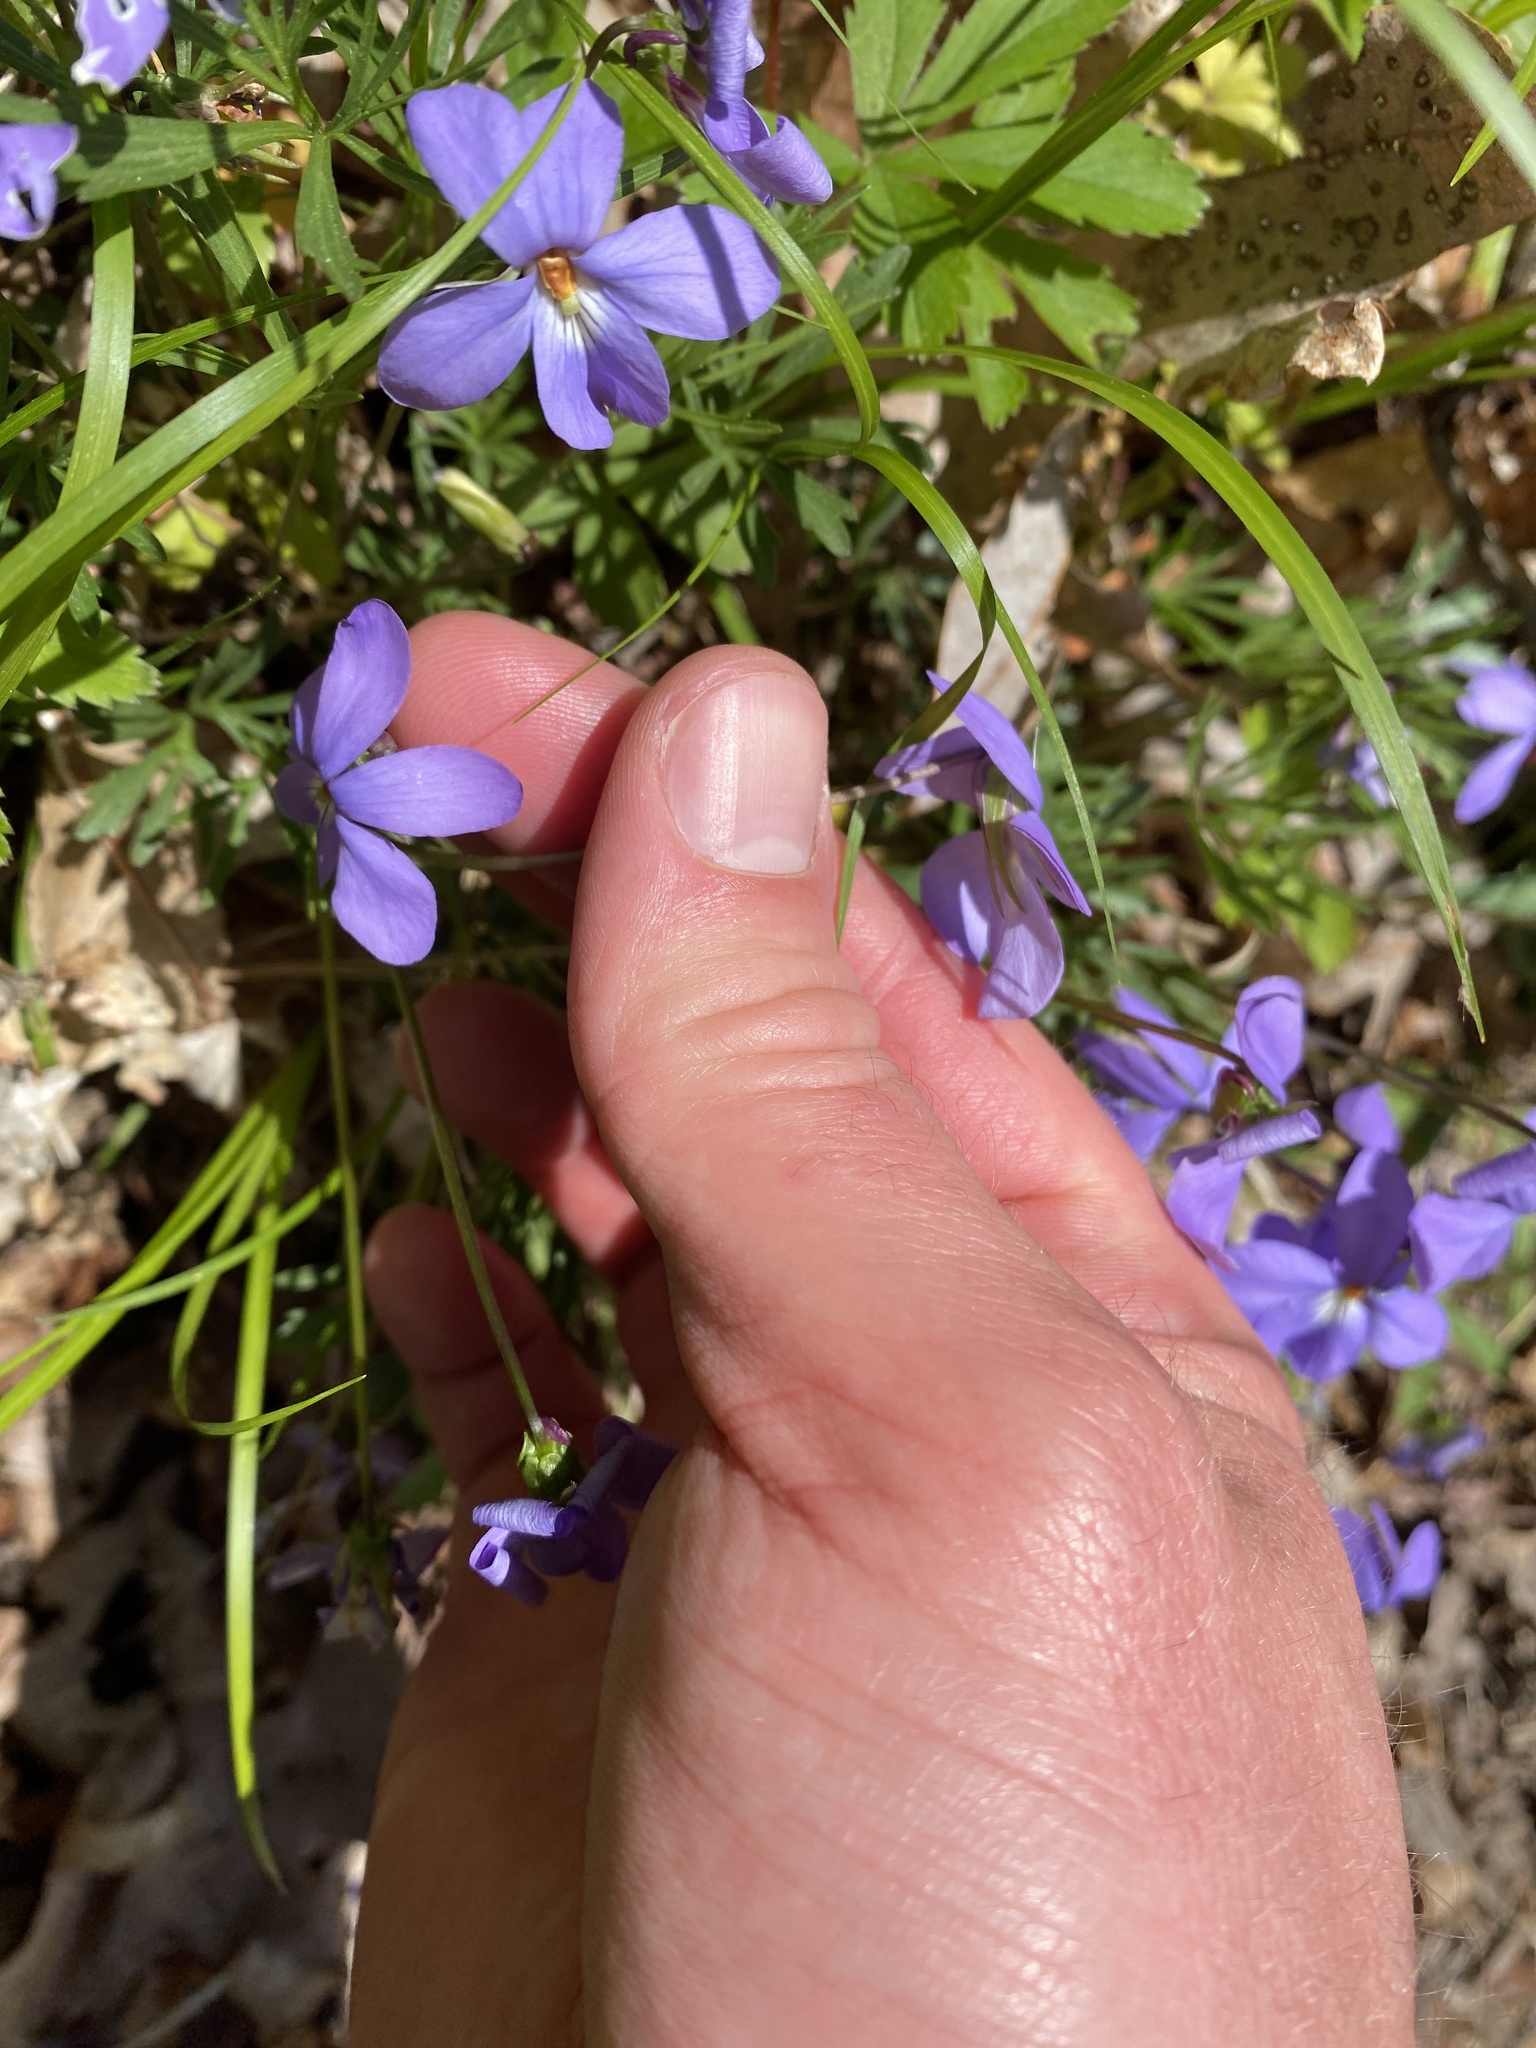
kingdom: Plantae
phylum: Tracheophyta
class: Magnoliopsida
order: Malpighiales
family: Violaceae
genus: Viola
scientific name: Viola pedata
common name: Pansy violet
